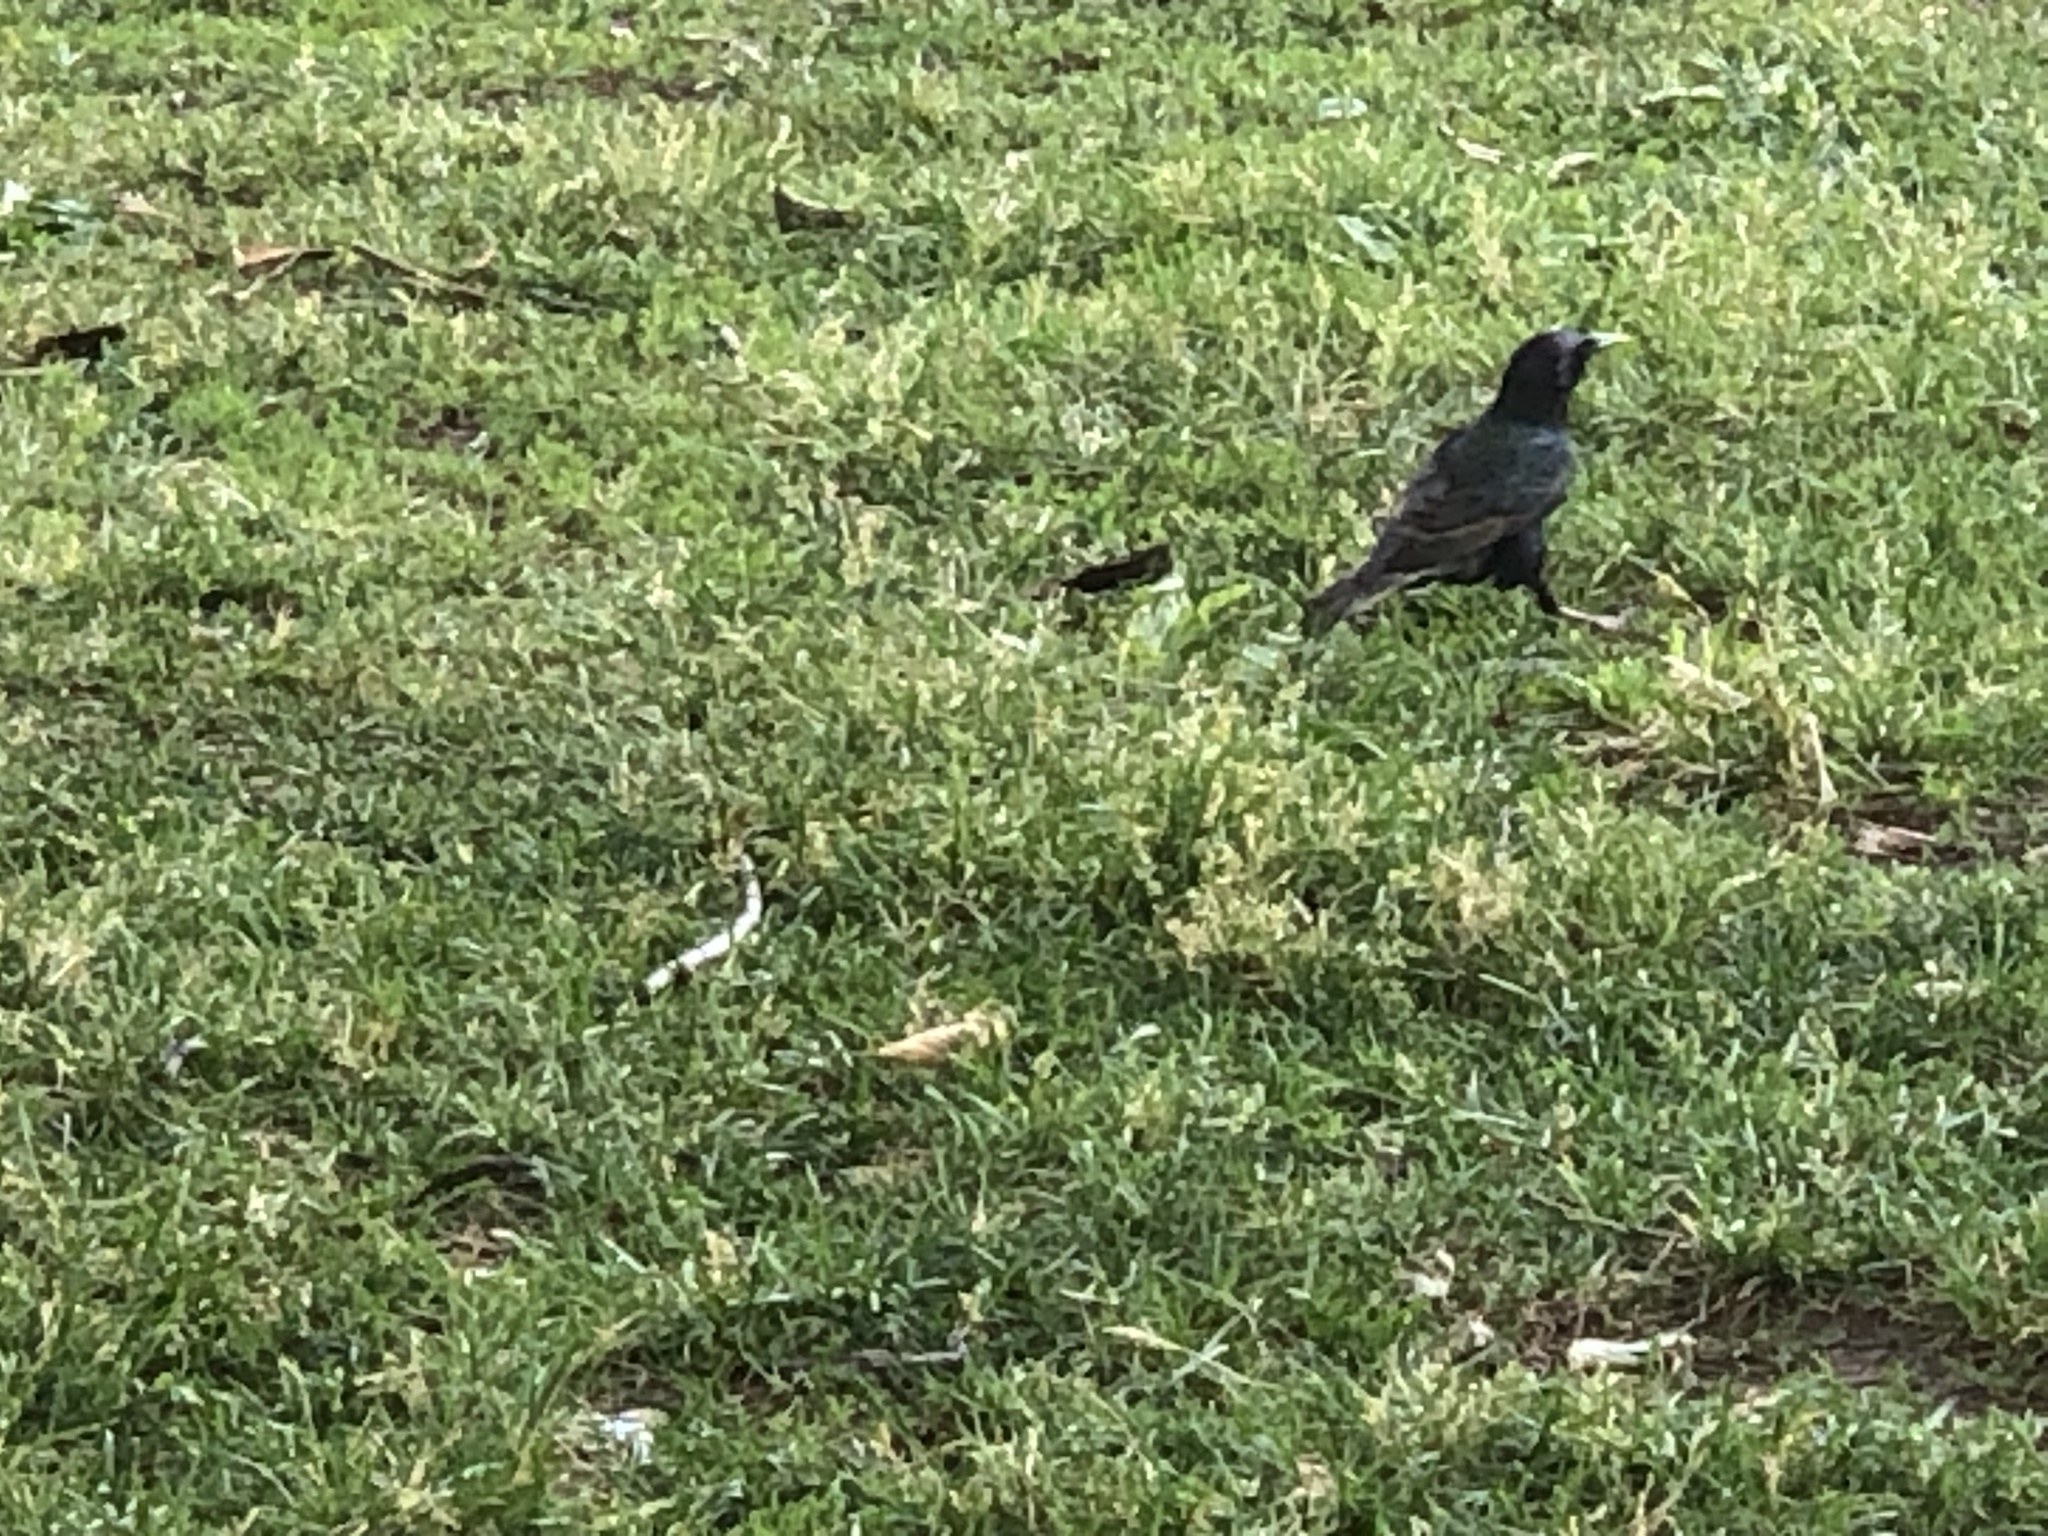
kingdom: Animalia
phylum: Chordata
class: Aves
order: Passeriformes
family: Sturnidae
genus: Sturnus
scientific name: Sturnus vulgaris
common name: Common starling
